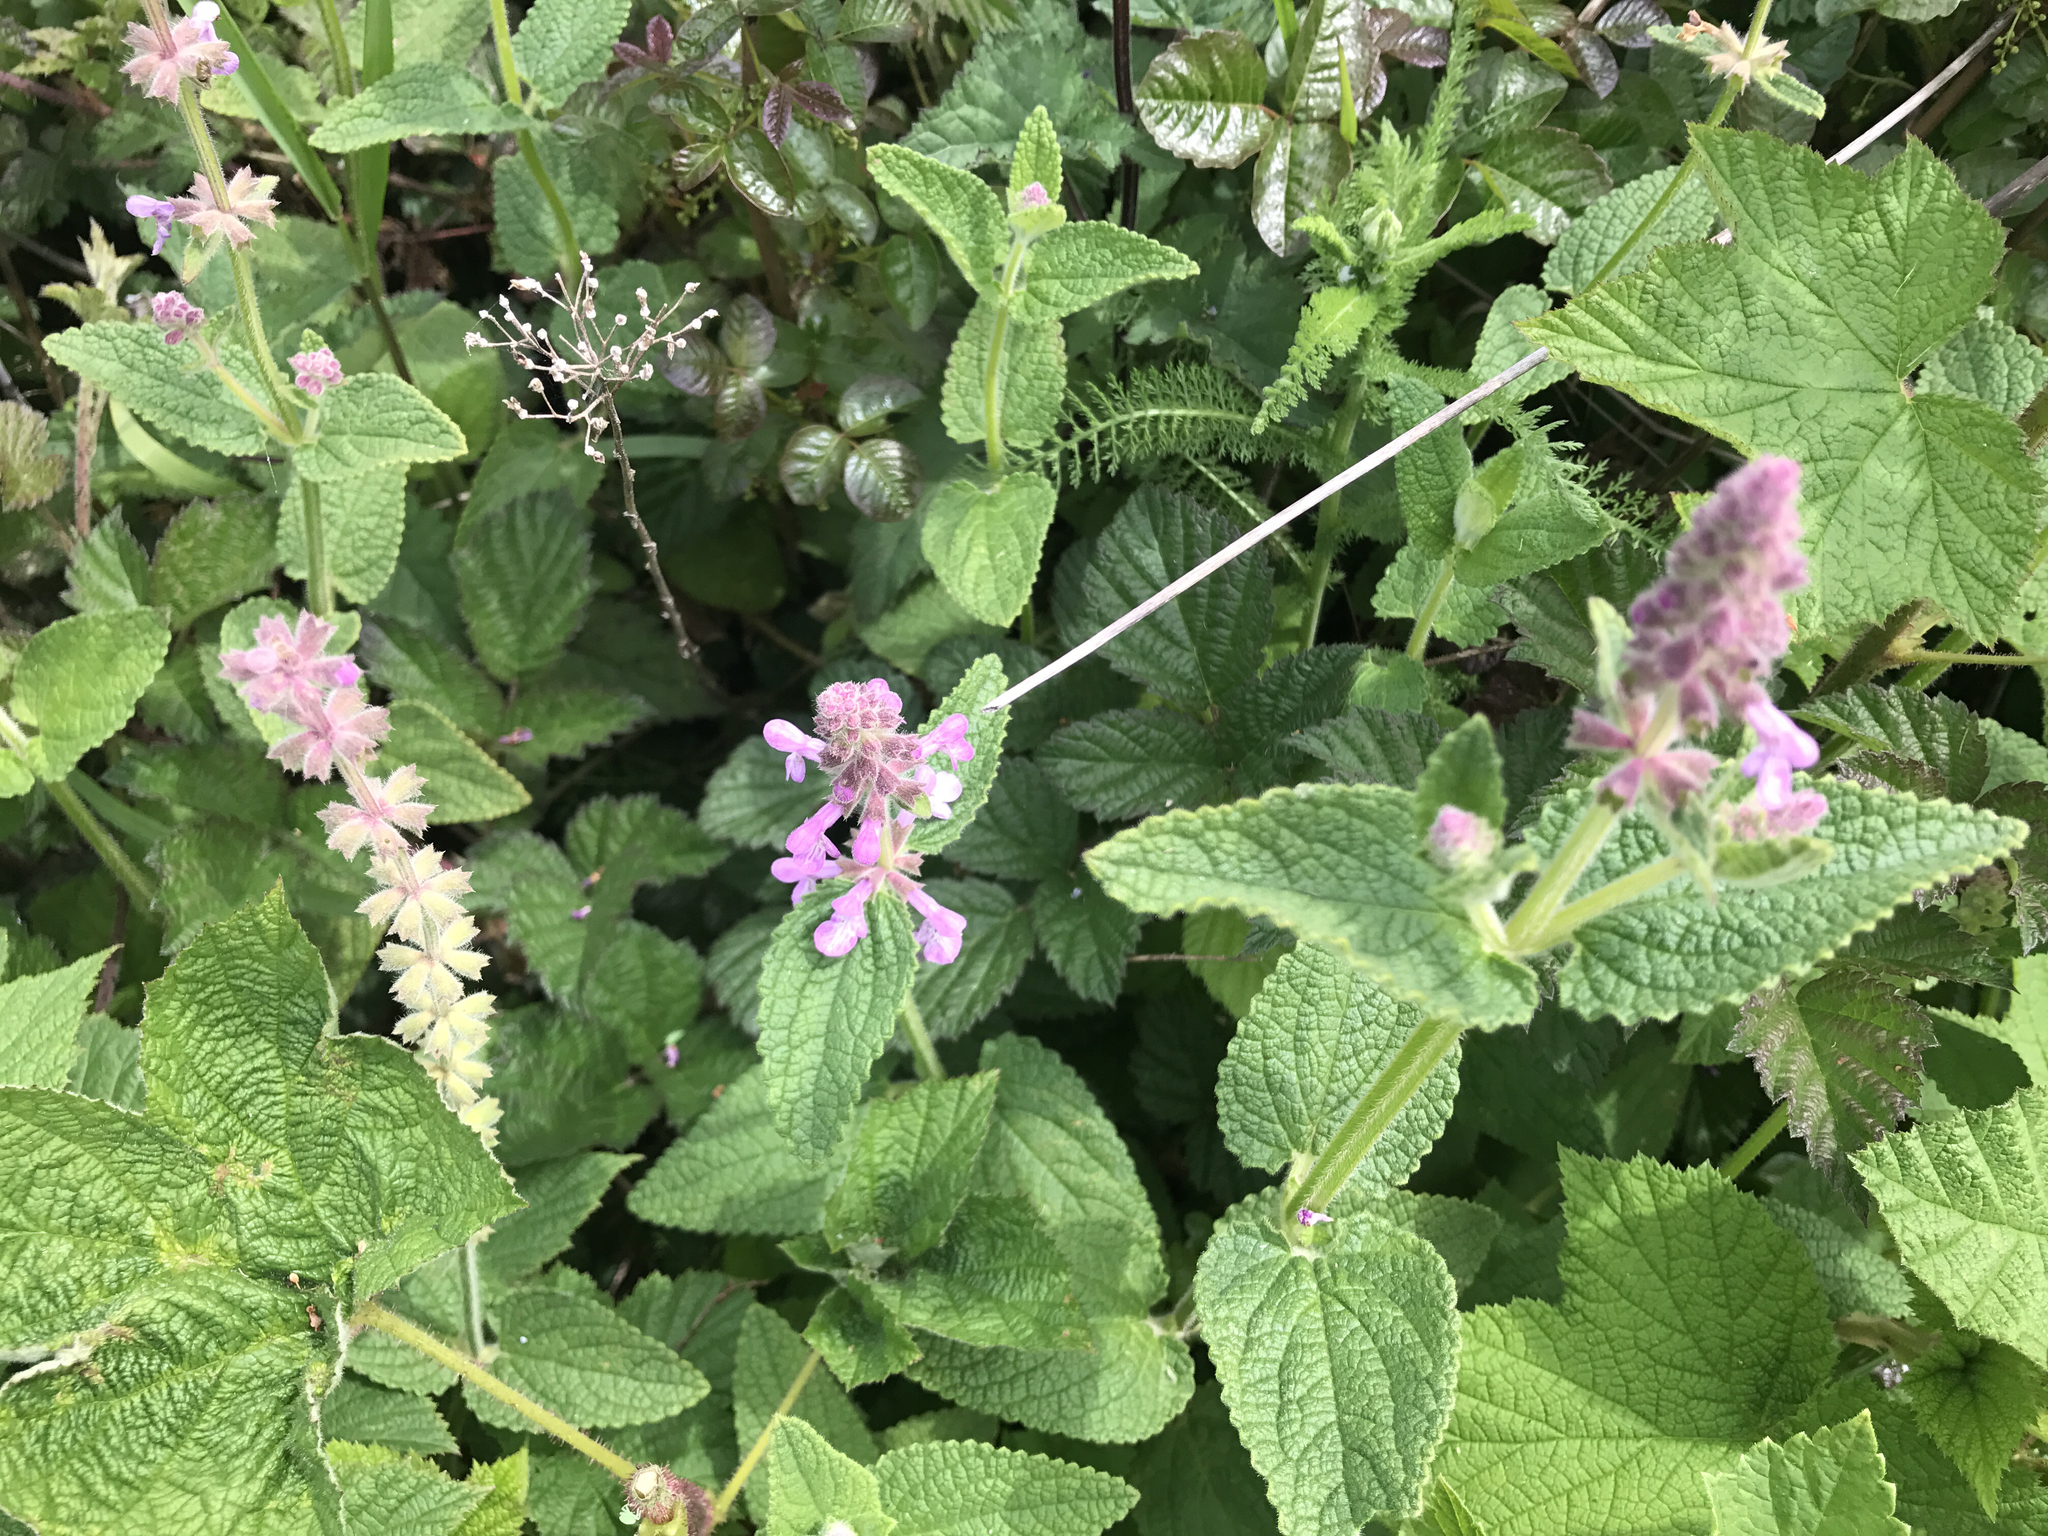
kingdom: Plantae
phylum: Tracheophyta
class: Magnoliopsida
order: Lamiales
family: Lamiaceae
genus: Stachys
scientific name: Stachys rigida
